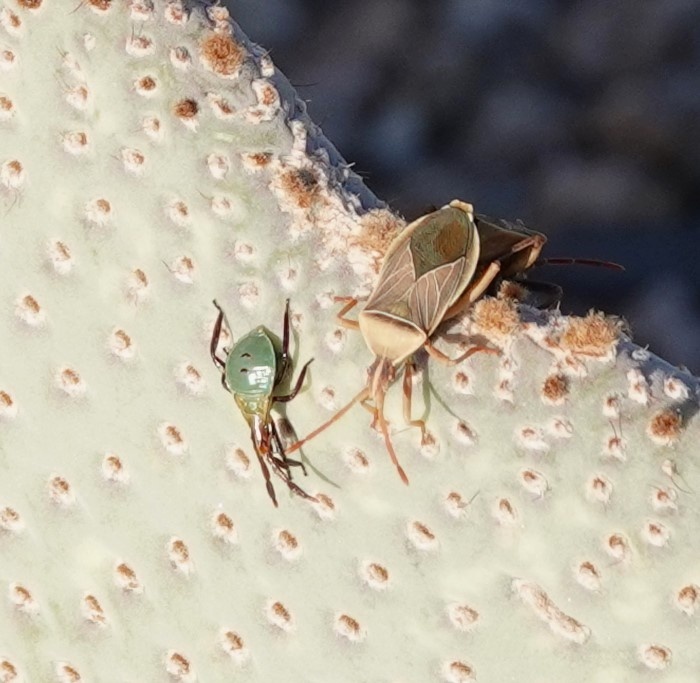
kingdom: Animalia
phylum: Arthropoda
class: Insecta
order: Hemiptera
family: Coreidae
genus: Chelinidea
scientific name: Chelinidea vittiger
